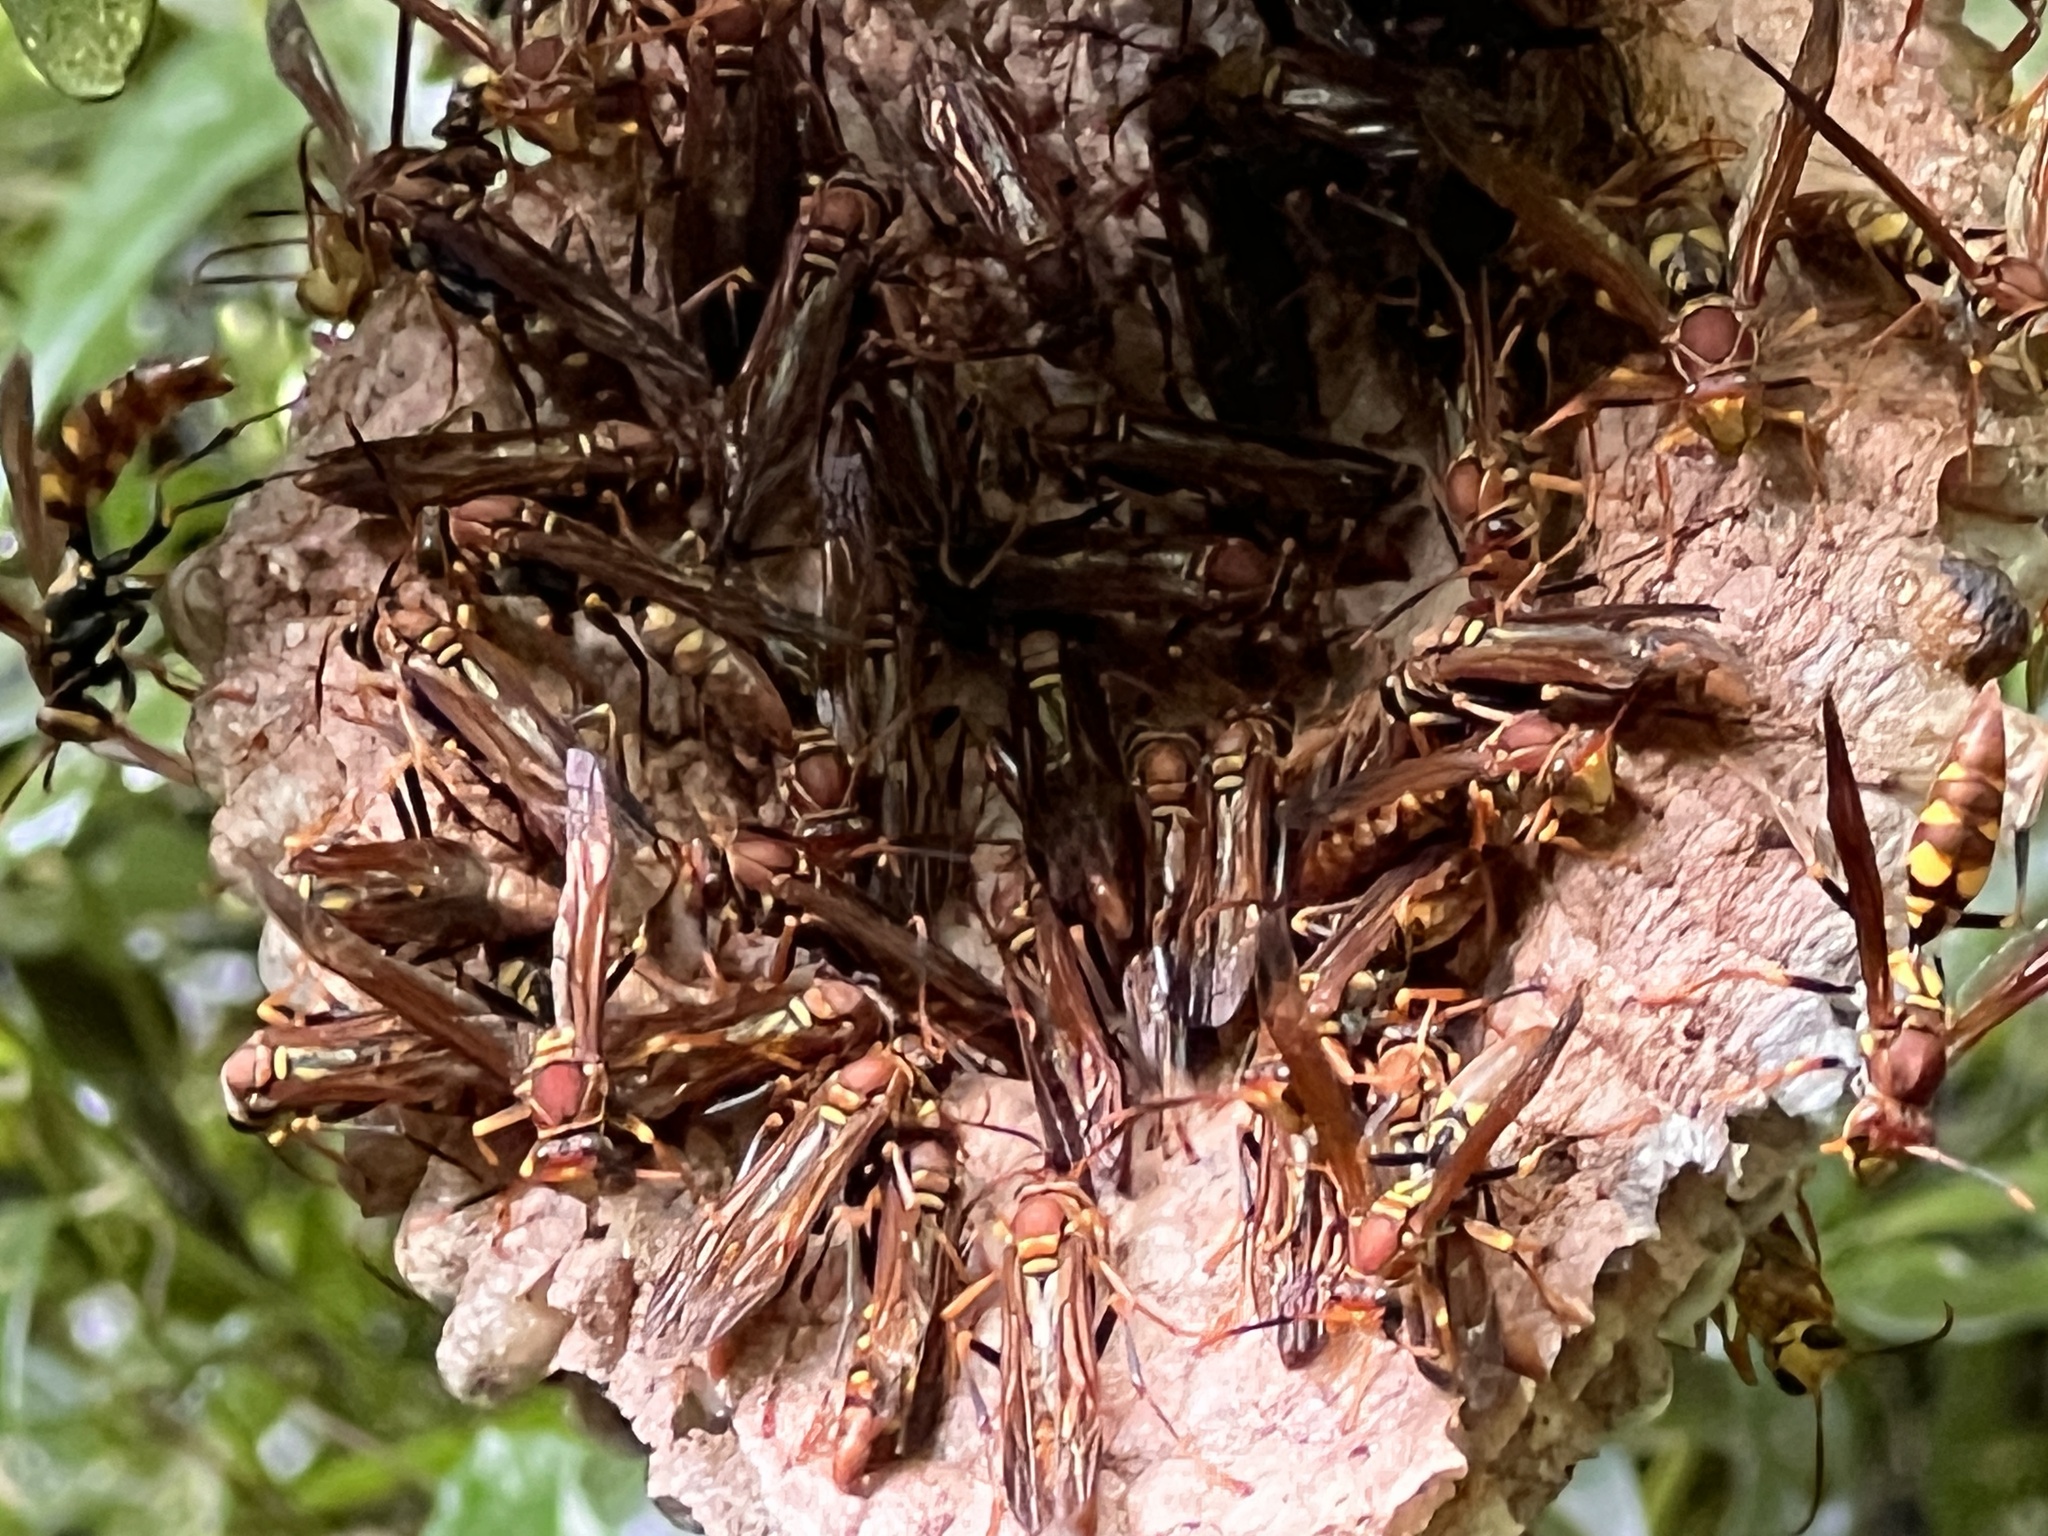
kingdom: Animalia
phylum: Arthropoda
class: Insecta
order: Hymenoptera
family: Eumenidae
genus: Polistes
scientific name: Polistes versicolor
